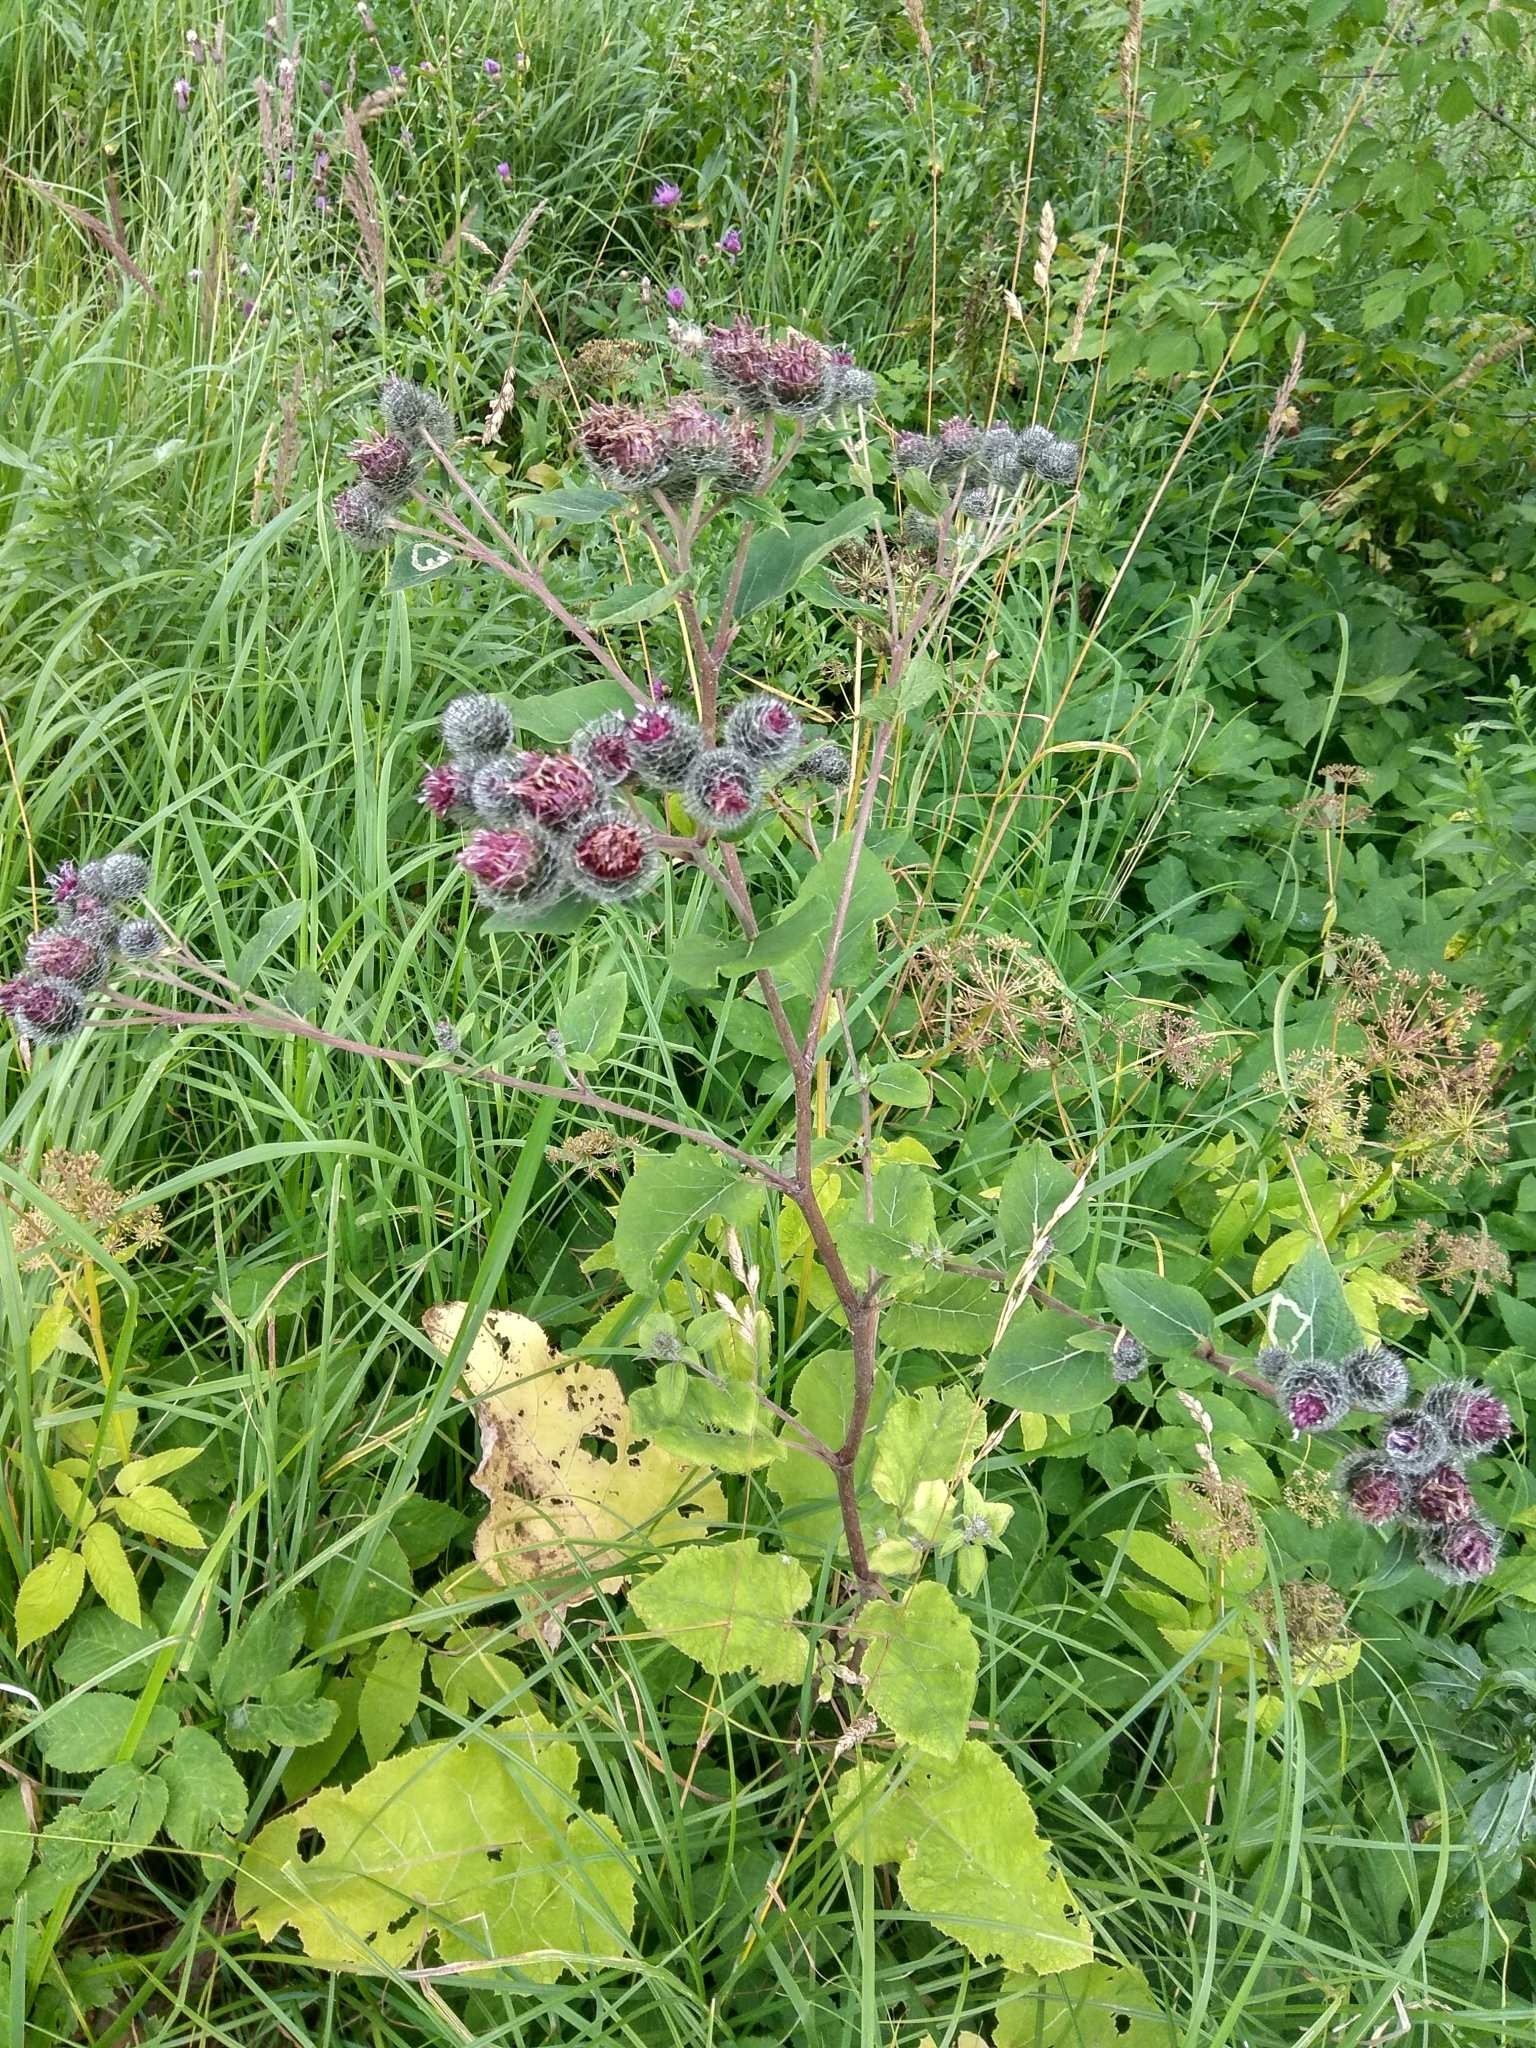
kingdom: Plantae
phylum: Tracheophyta
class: Magnoliopsida
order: Asterales
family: Asteraceae
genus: Arctium
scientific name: Arctium tomentosum
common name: Woolly burdock
